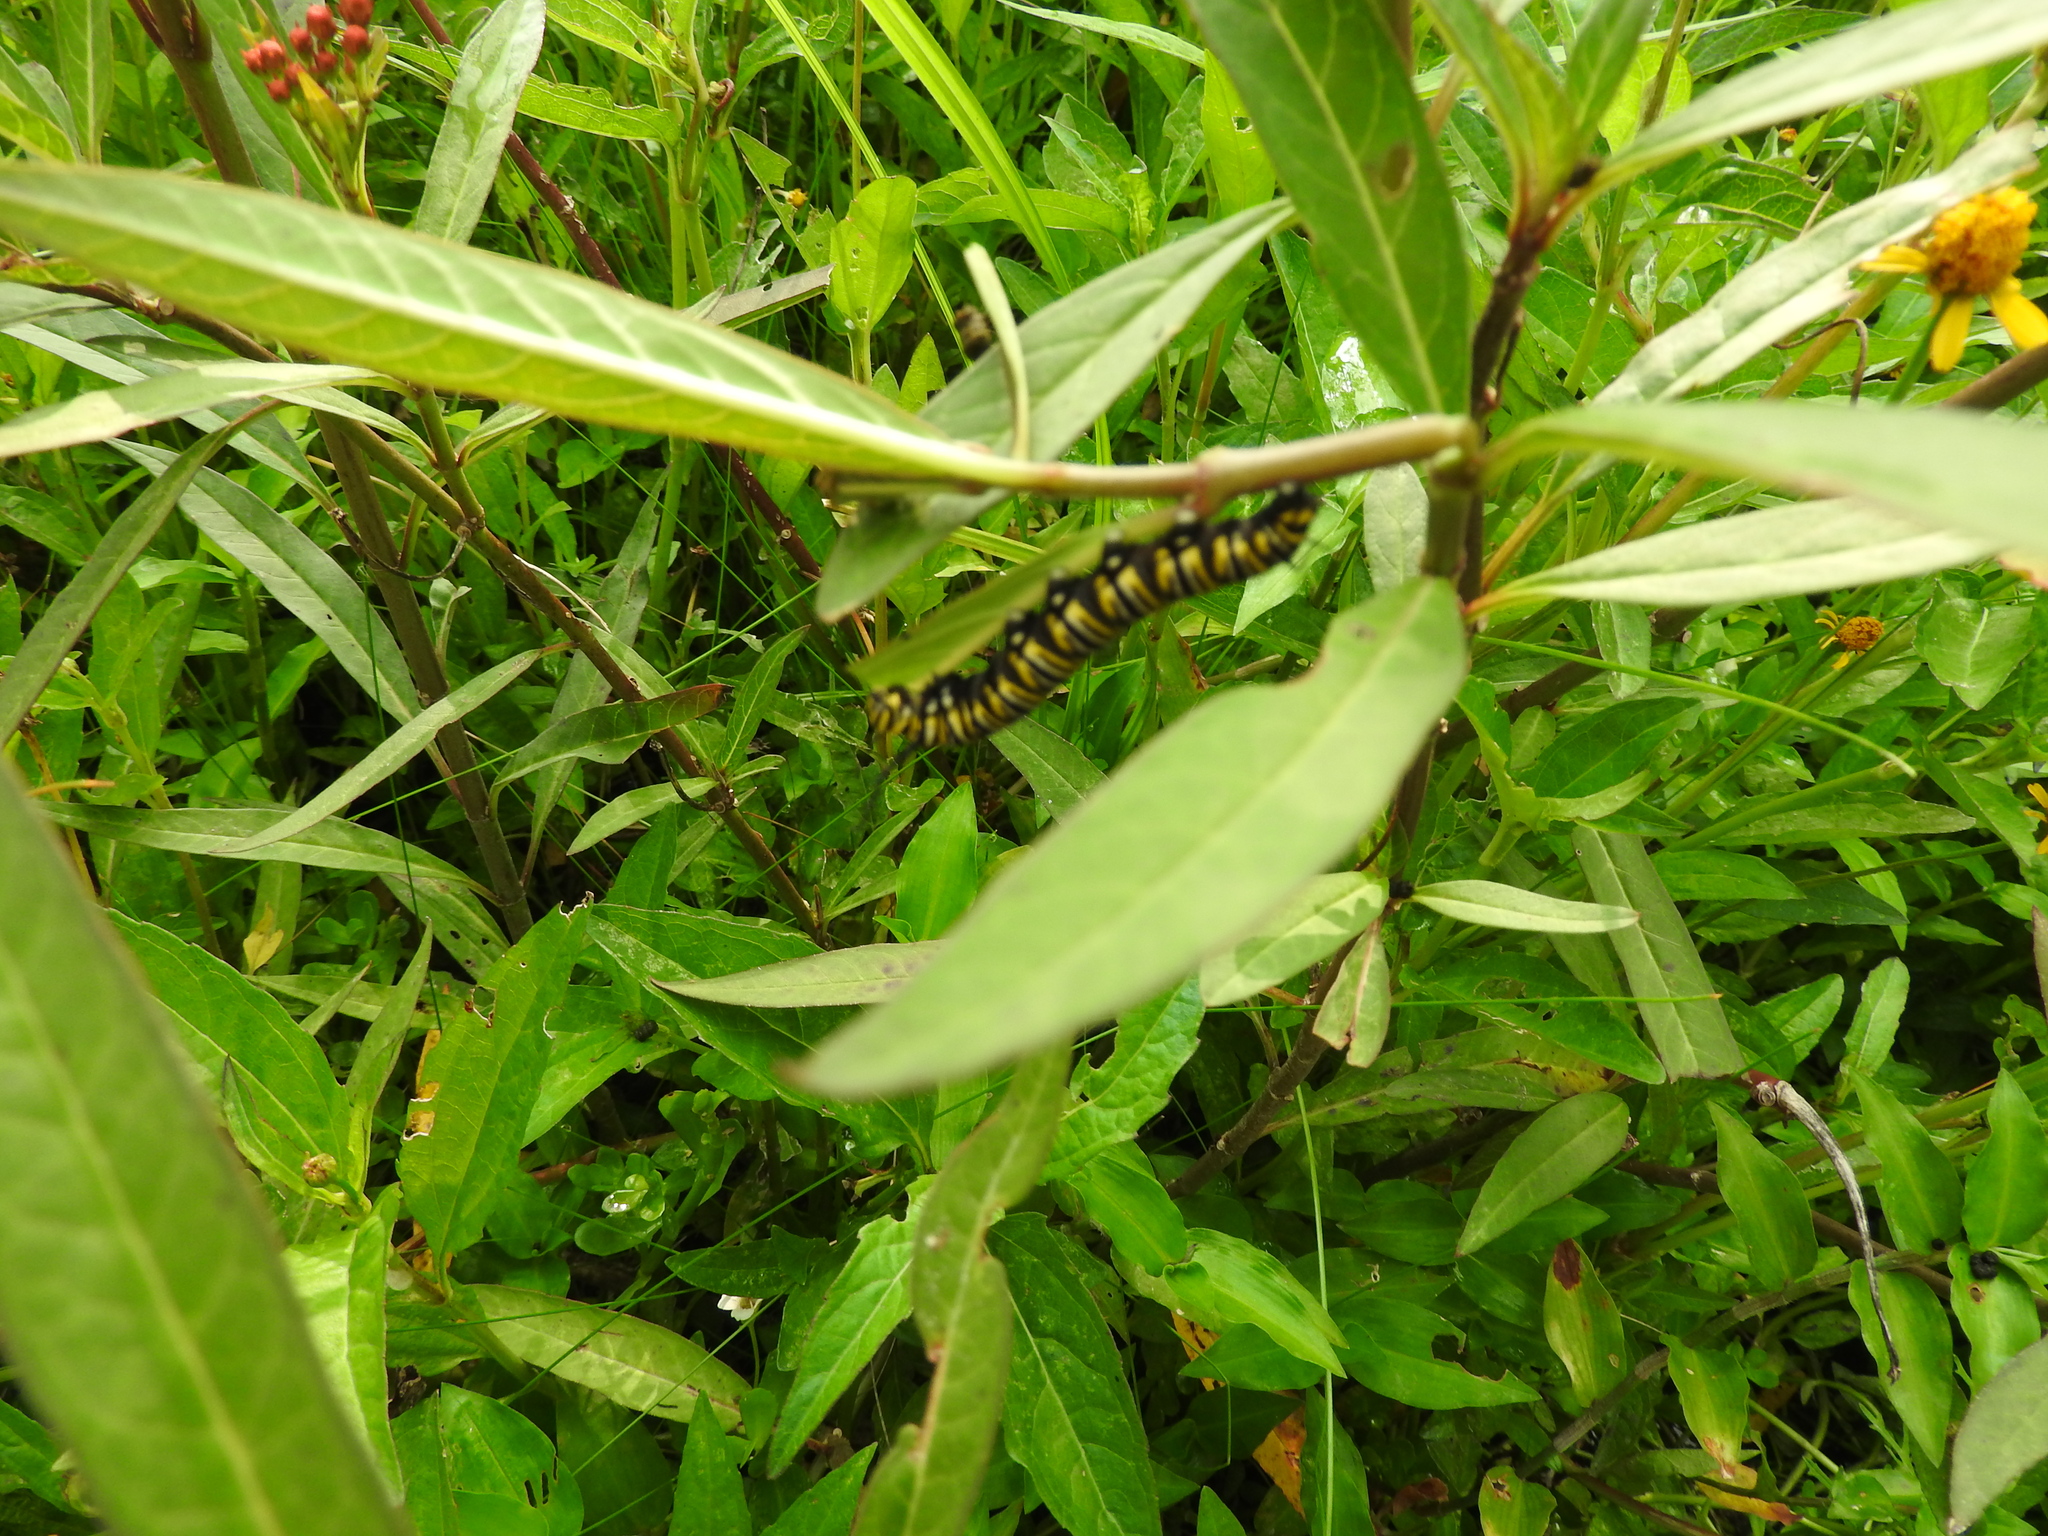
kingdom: Animalia
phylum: Arthropoda
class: Insecta
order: Lepidoptera
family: Nymphalidae
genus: Danaus
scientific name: Danaus plexippus
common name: Monarch
